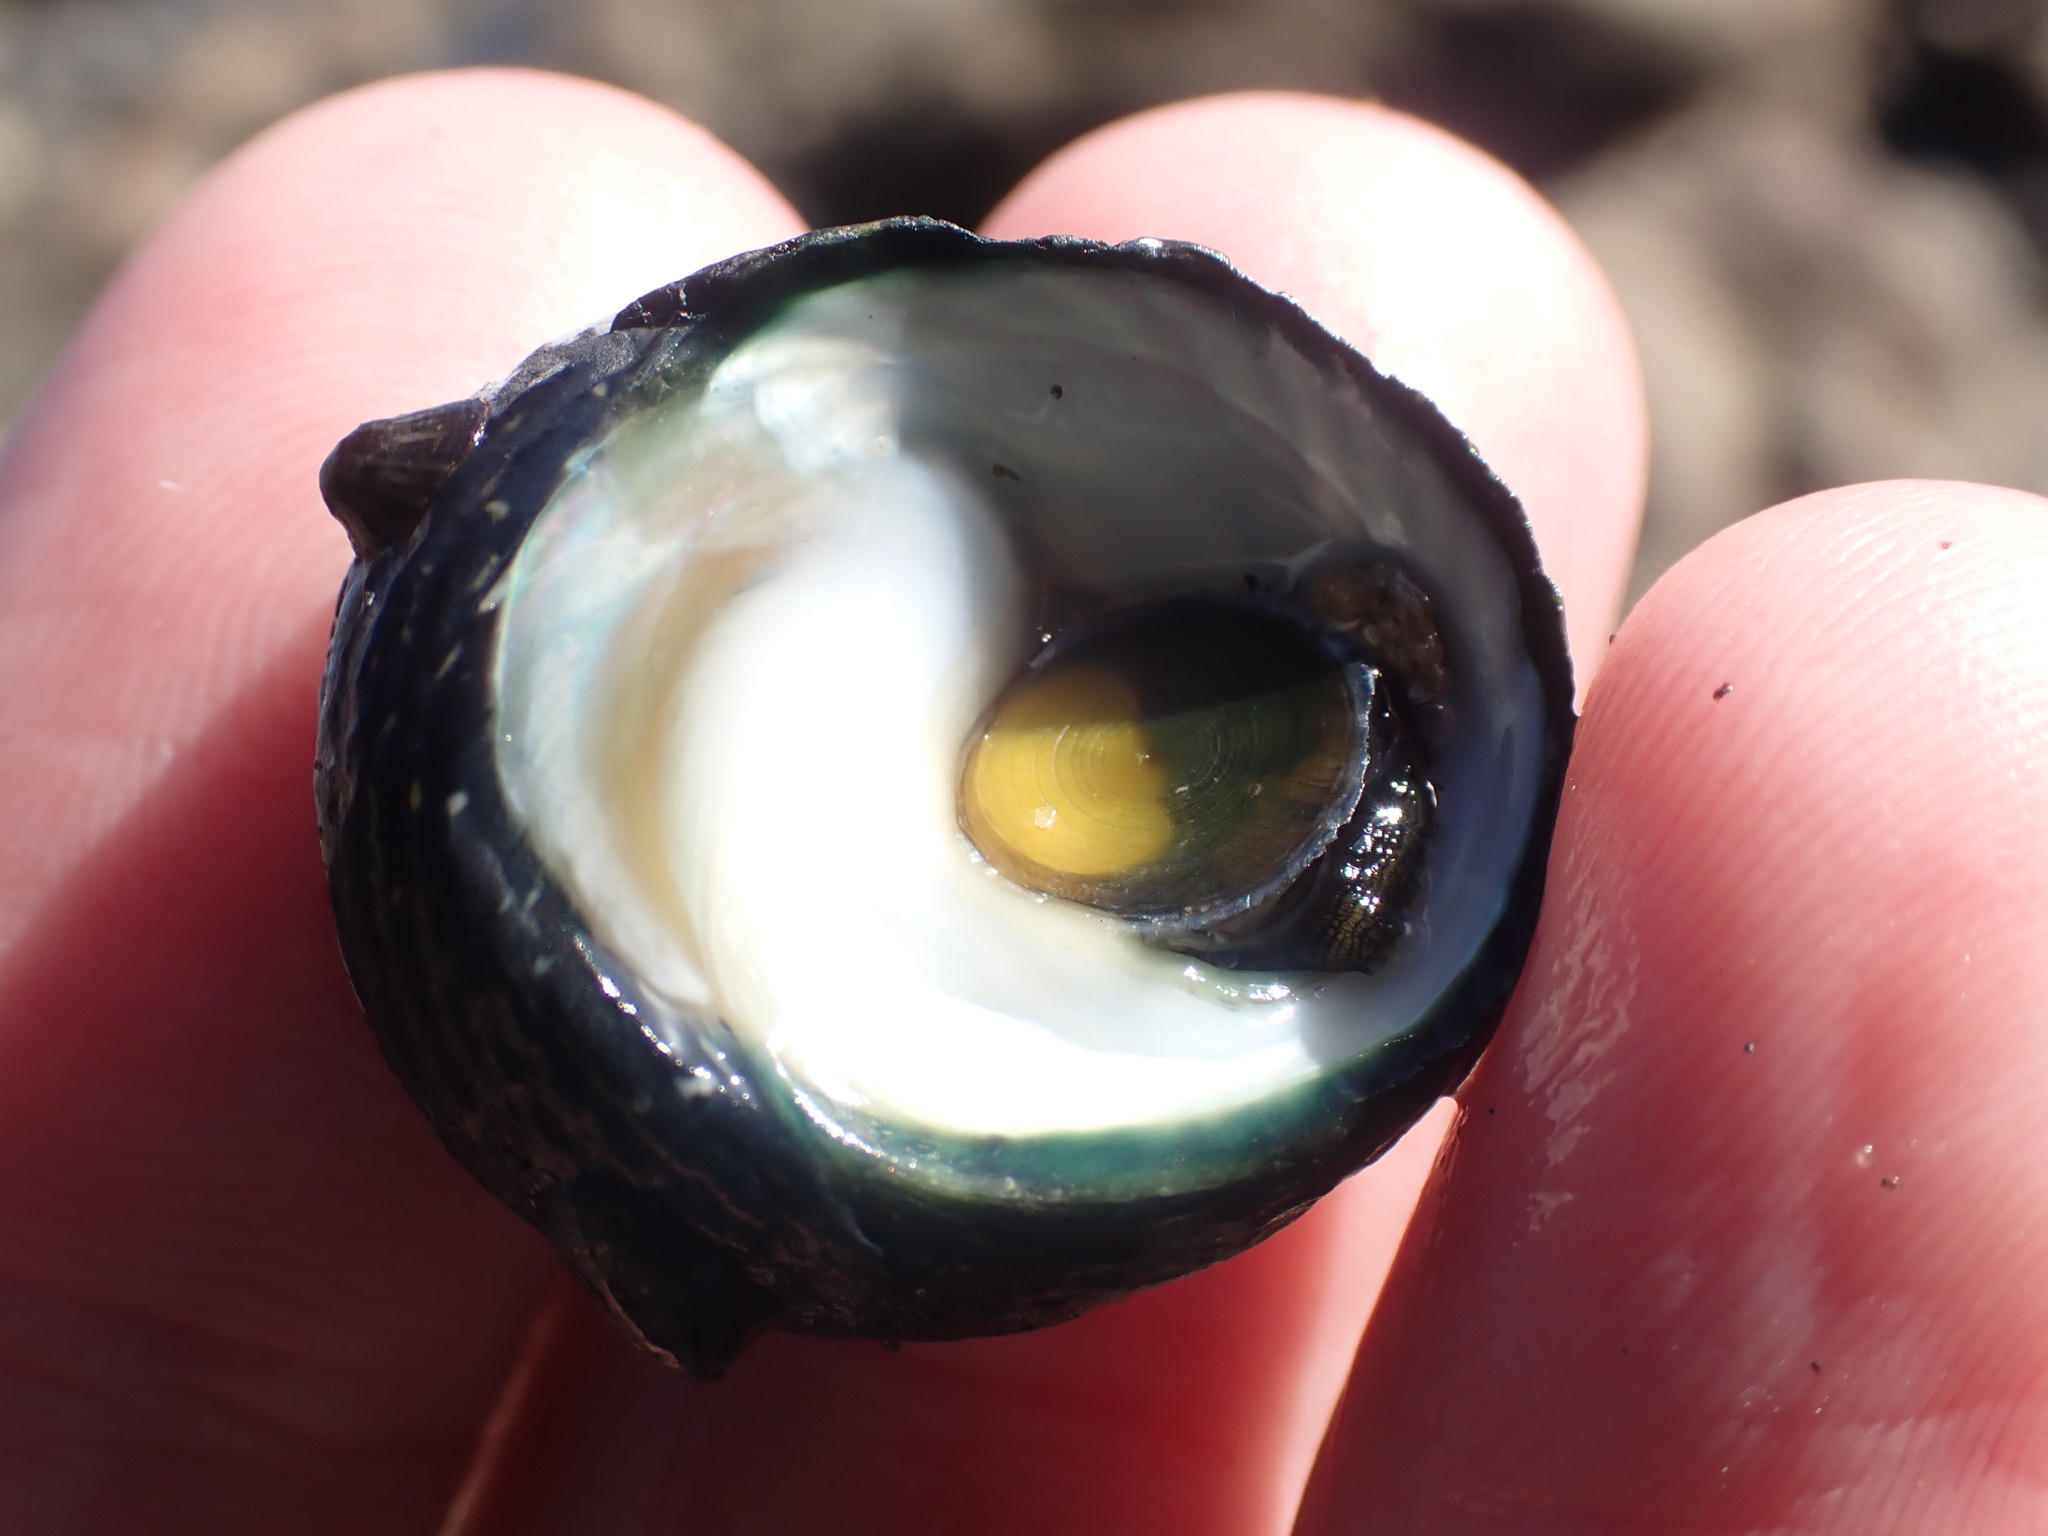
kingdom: Animalia
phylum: Mollusca
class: Gastropoda
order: Trochida
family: Trochidae
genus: Diloma
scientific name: Diloma zelandicum
